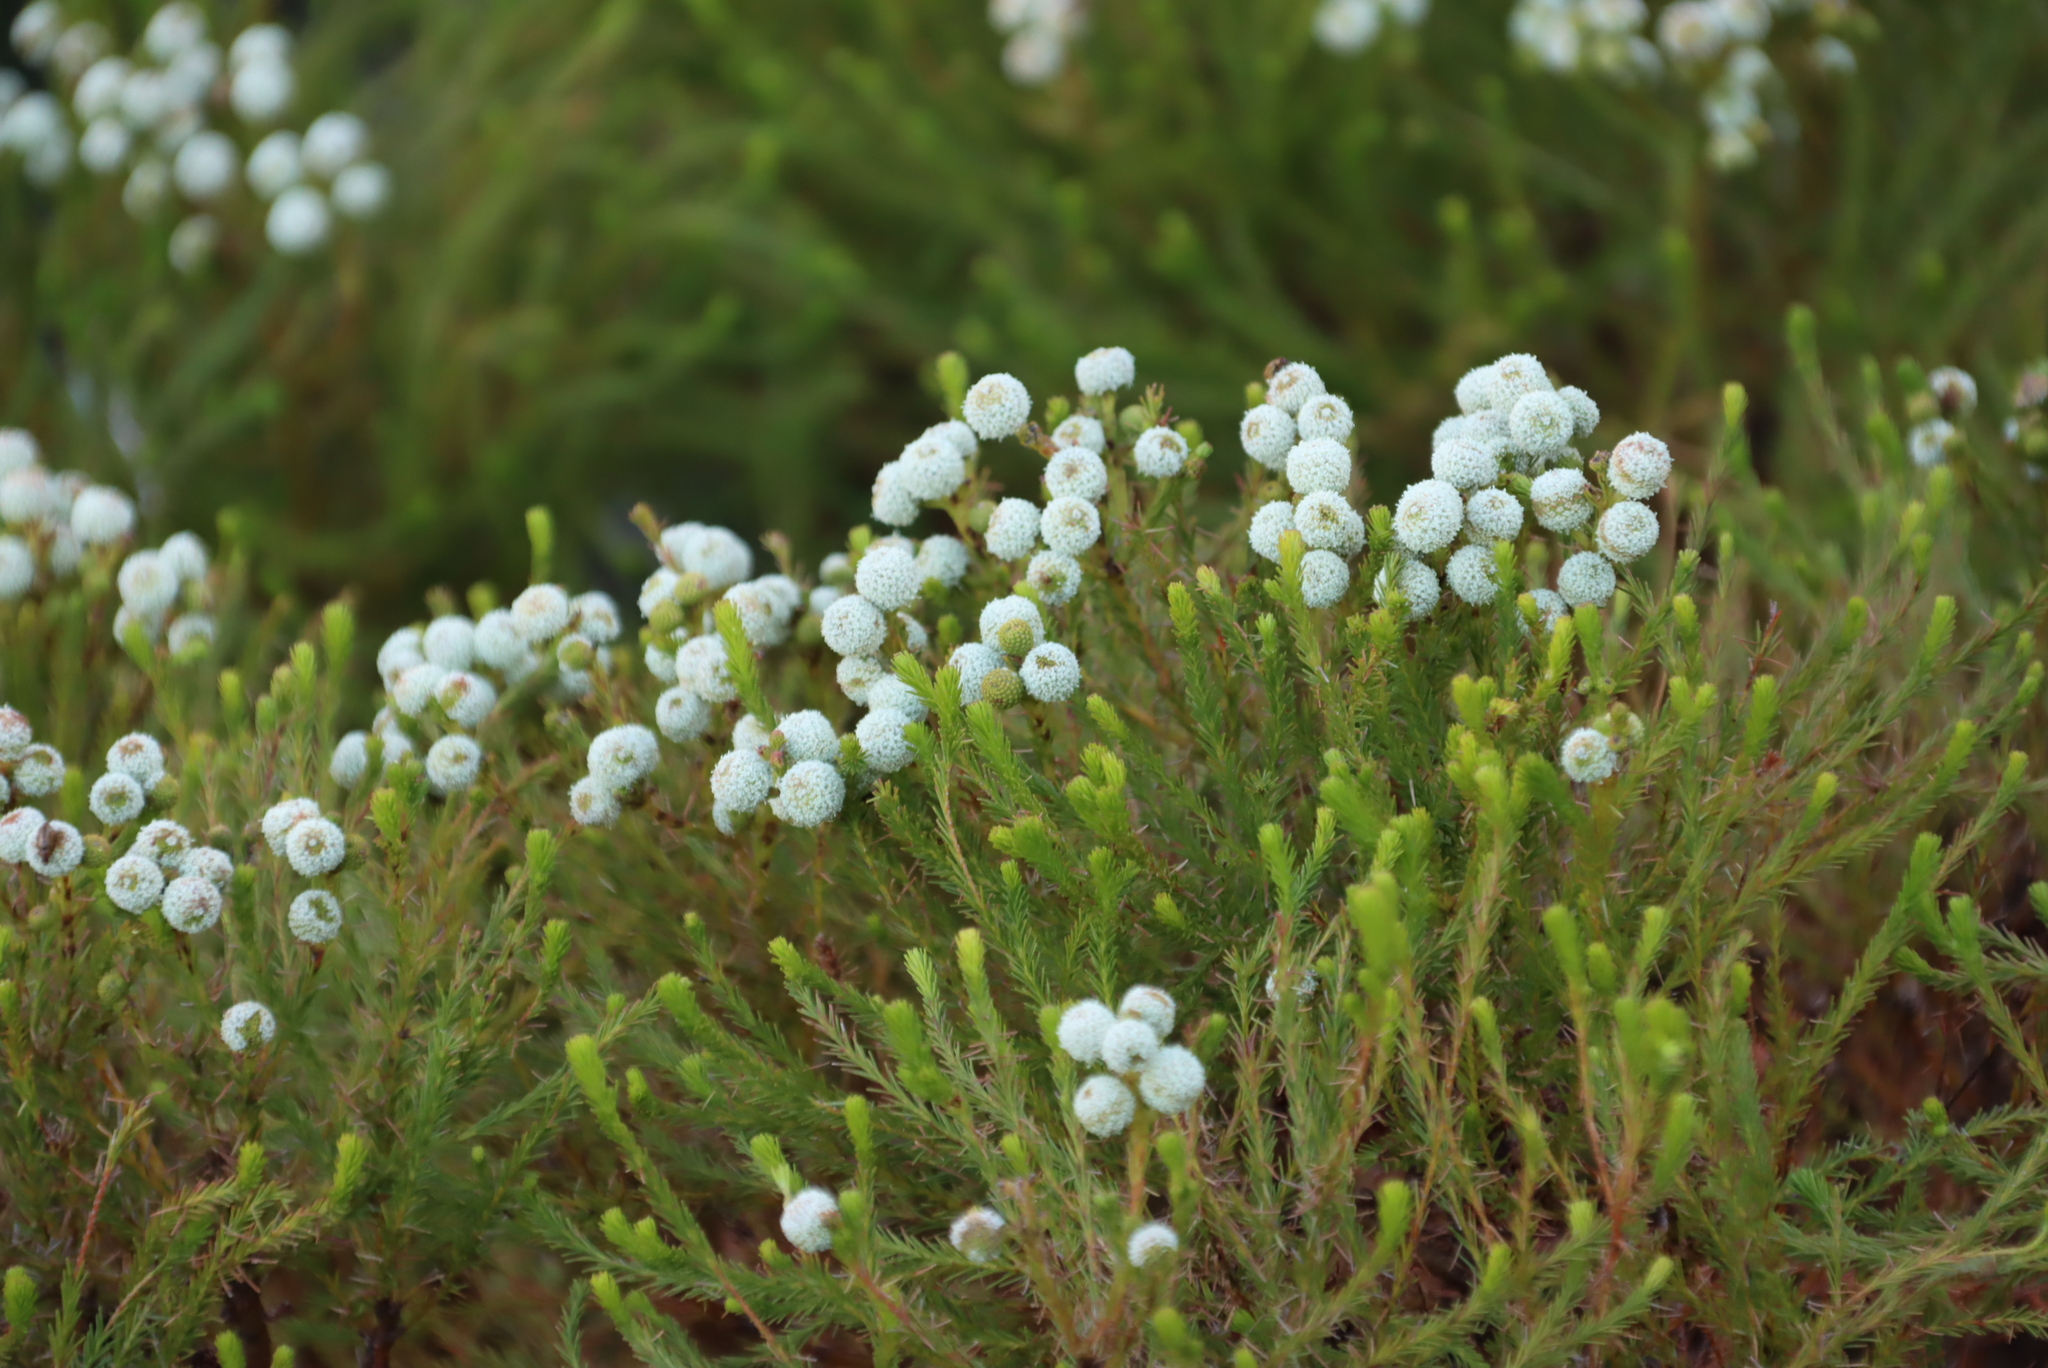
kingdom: Plantae
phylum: Tracheophyta
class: Magnoliopsida
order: Bruniales
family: Bruniaceae
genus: Berzelia
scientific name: Berzelia lanuginosa
